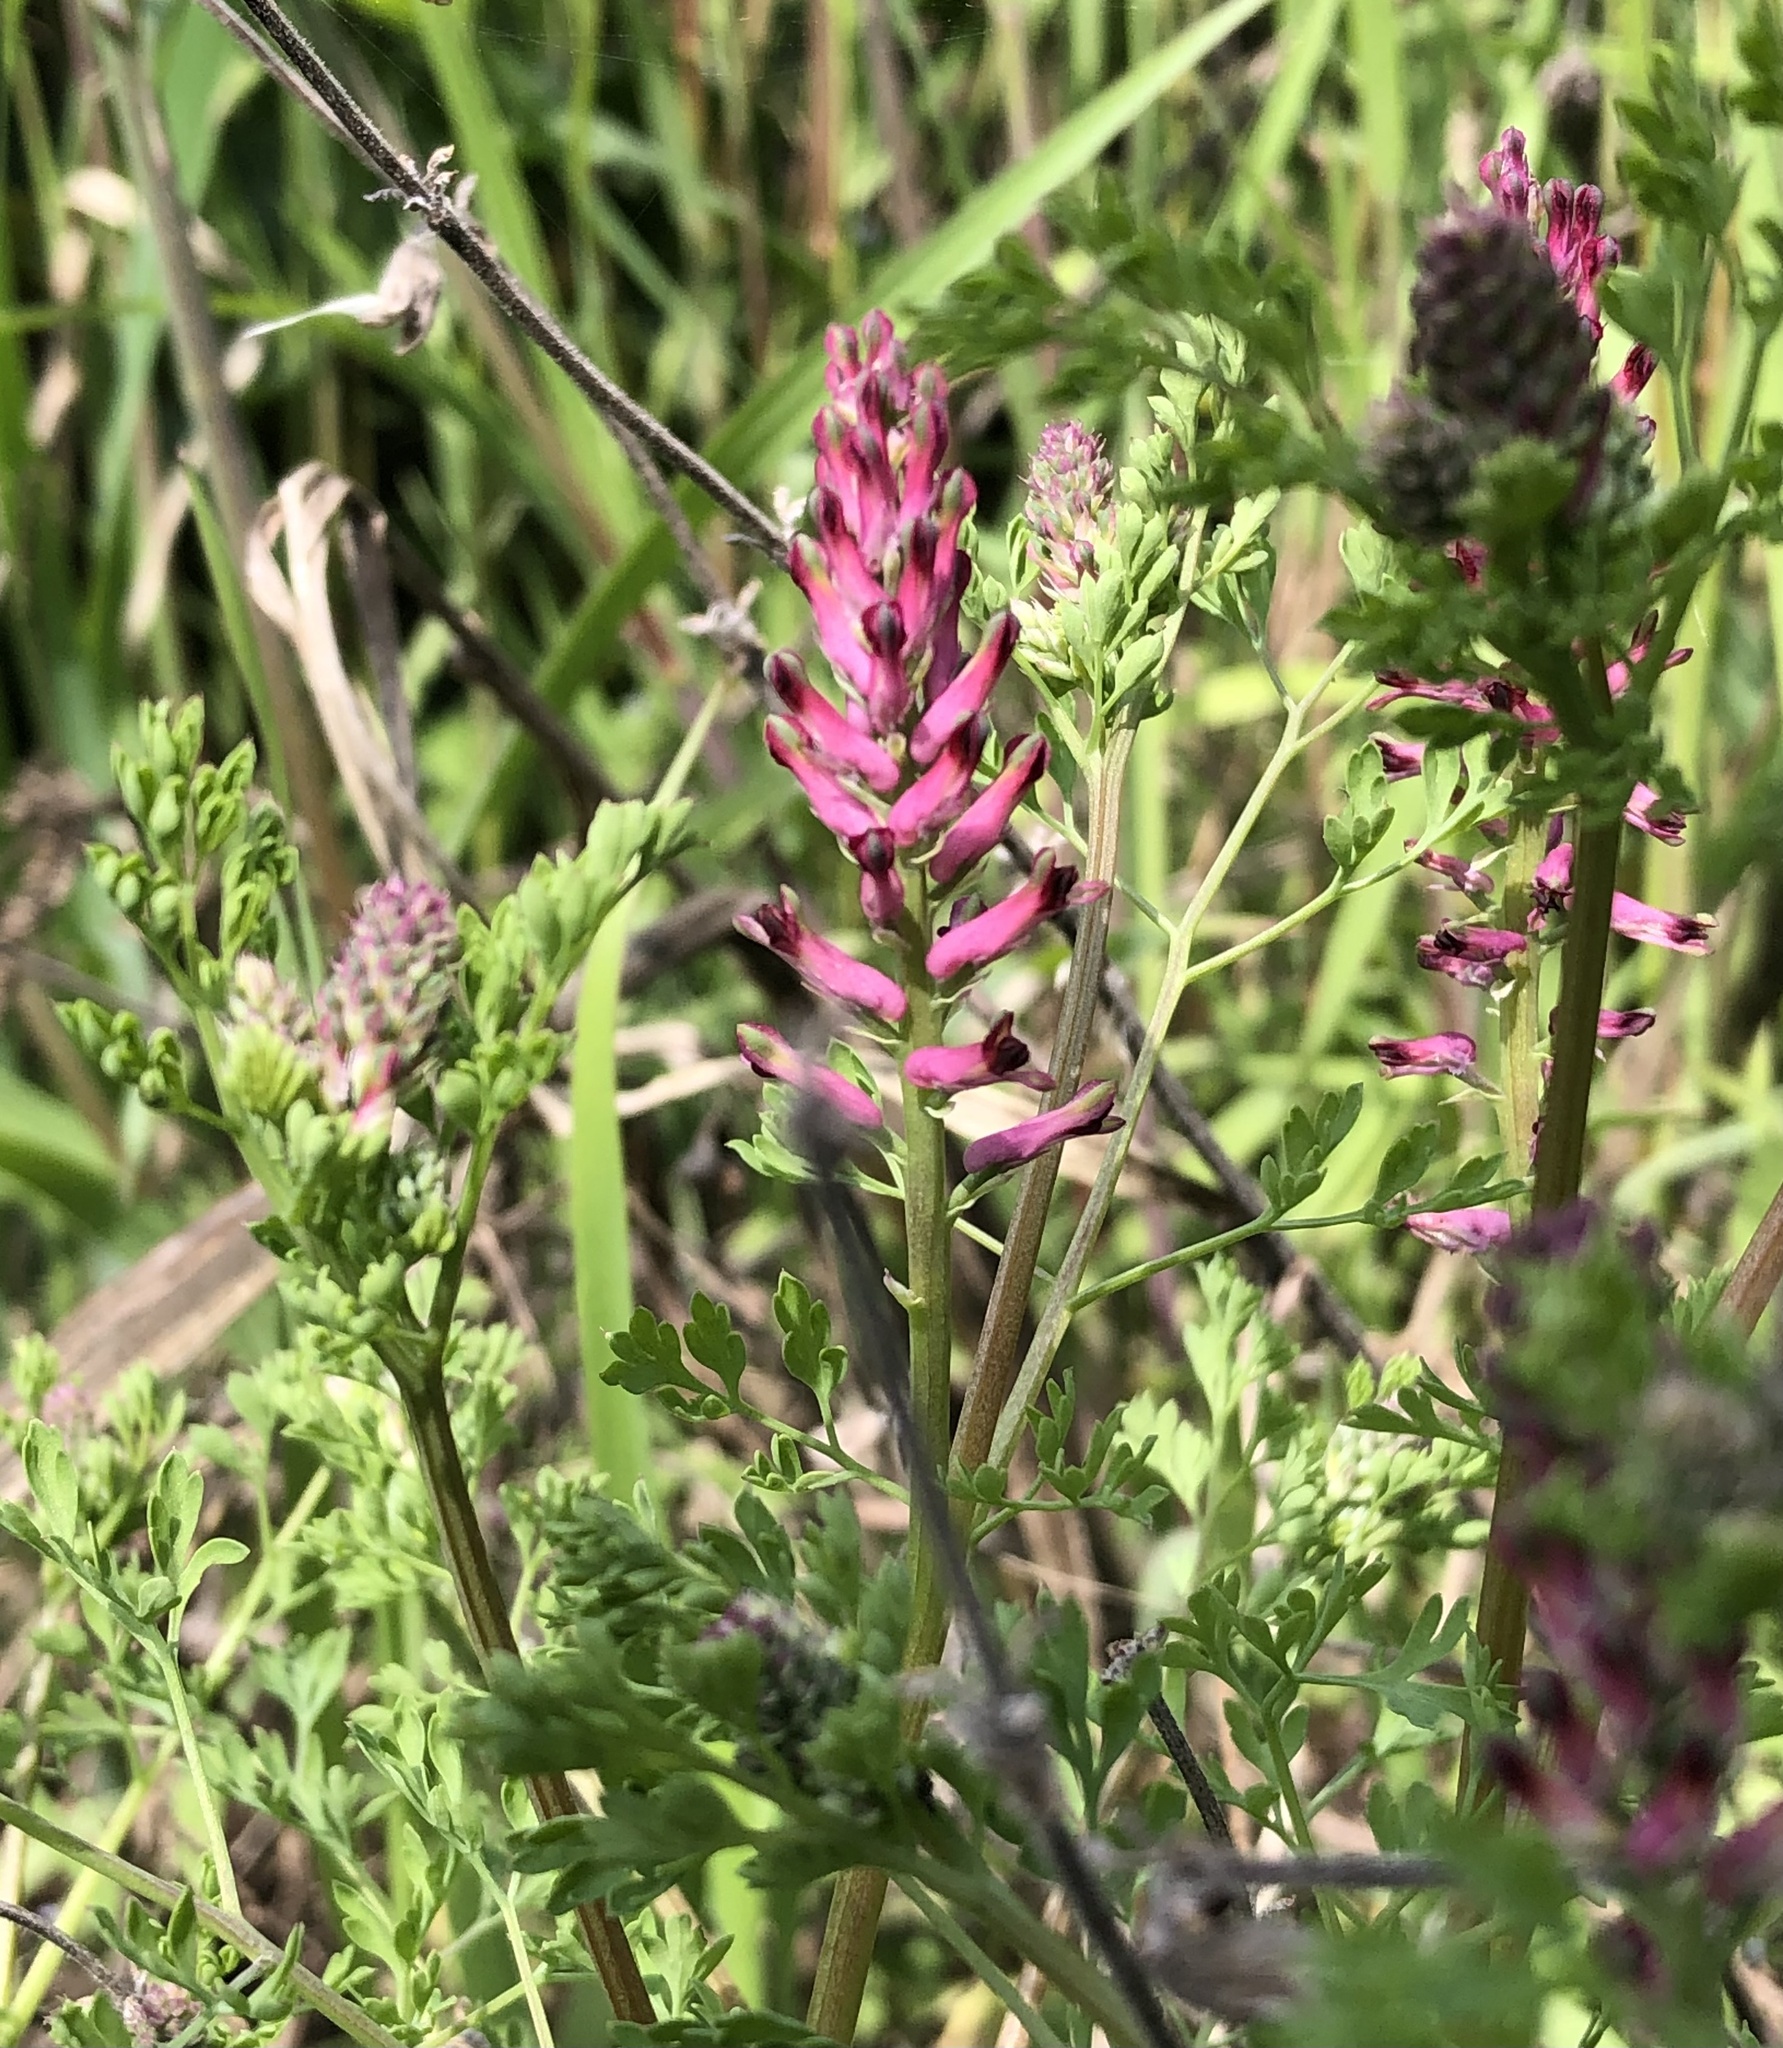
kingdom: Plantae
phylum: Tracheophyta
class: Magnoliopsida
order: Ranunculales
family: Papaveraceae
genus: Fumaria
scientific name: Fumaria officinalis
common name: Common fumitory
